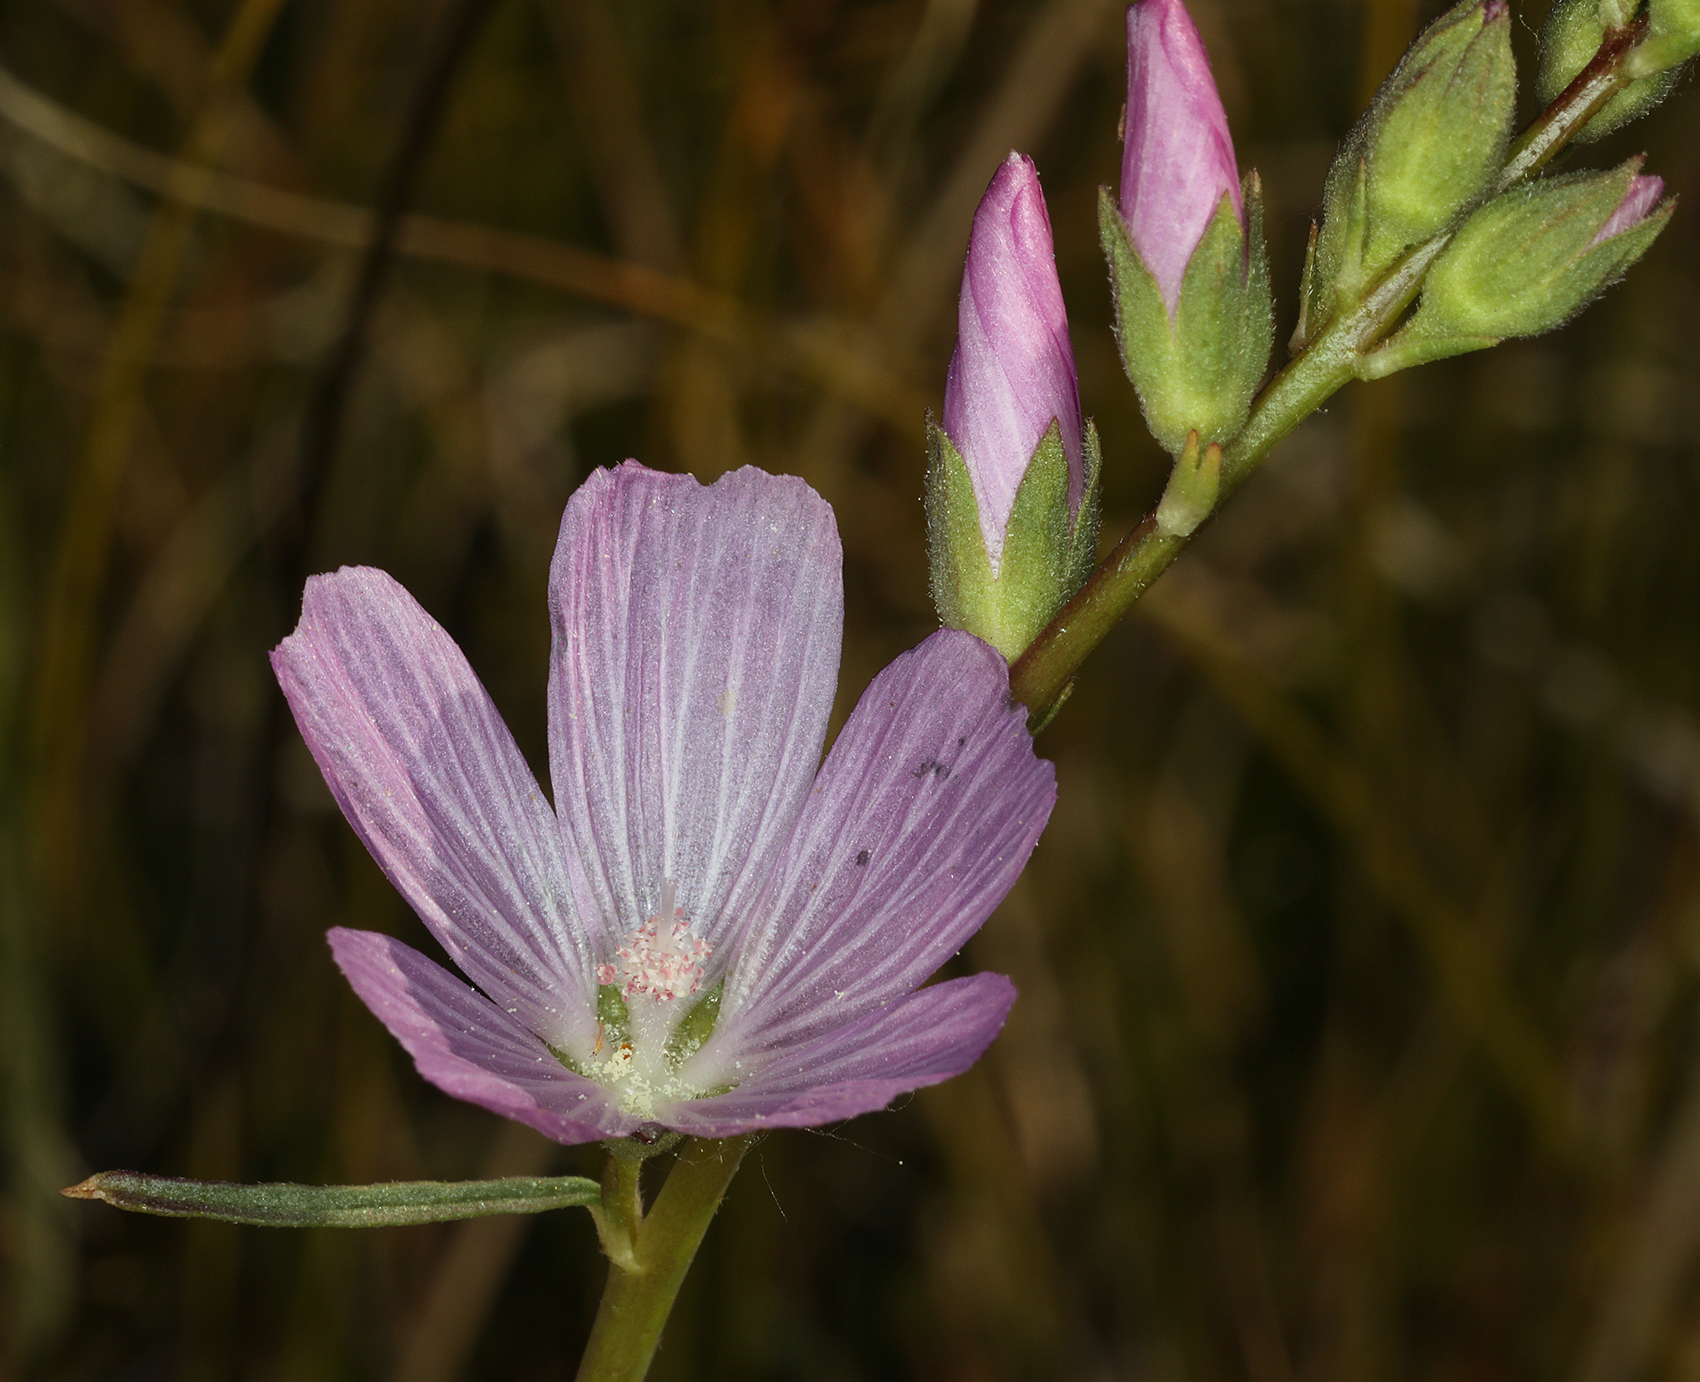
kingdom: Plantae
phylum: Tracheophyta
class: Magnoliopsida
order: Malvales
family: Malvaceae
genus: Sidalcea
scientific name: Sidalcea covillei
